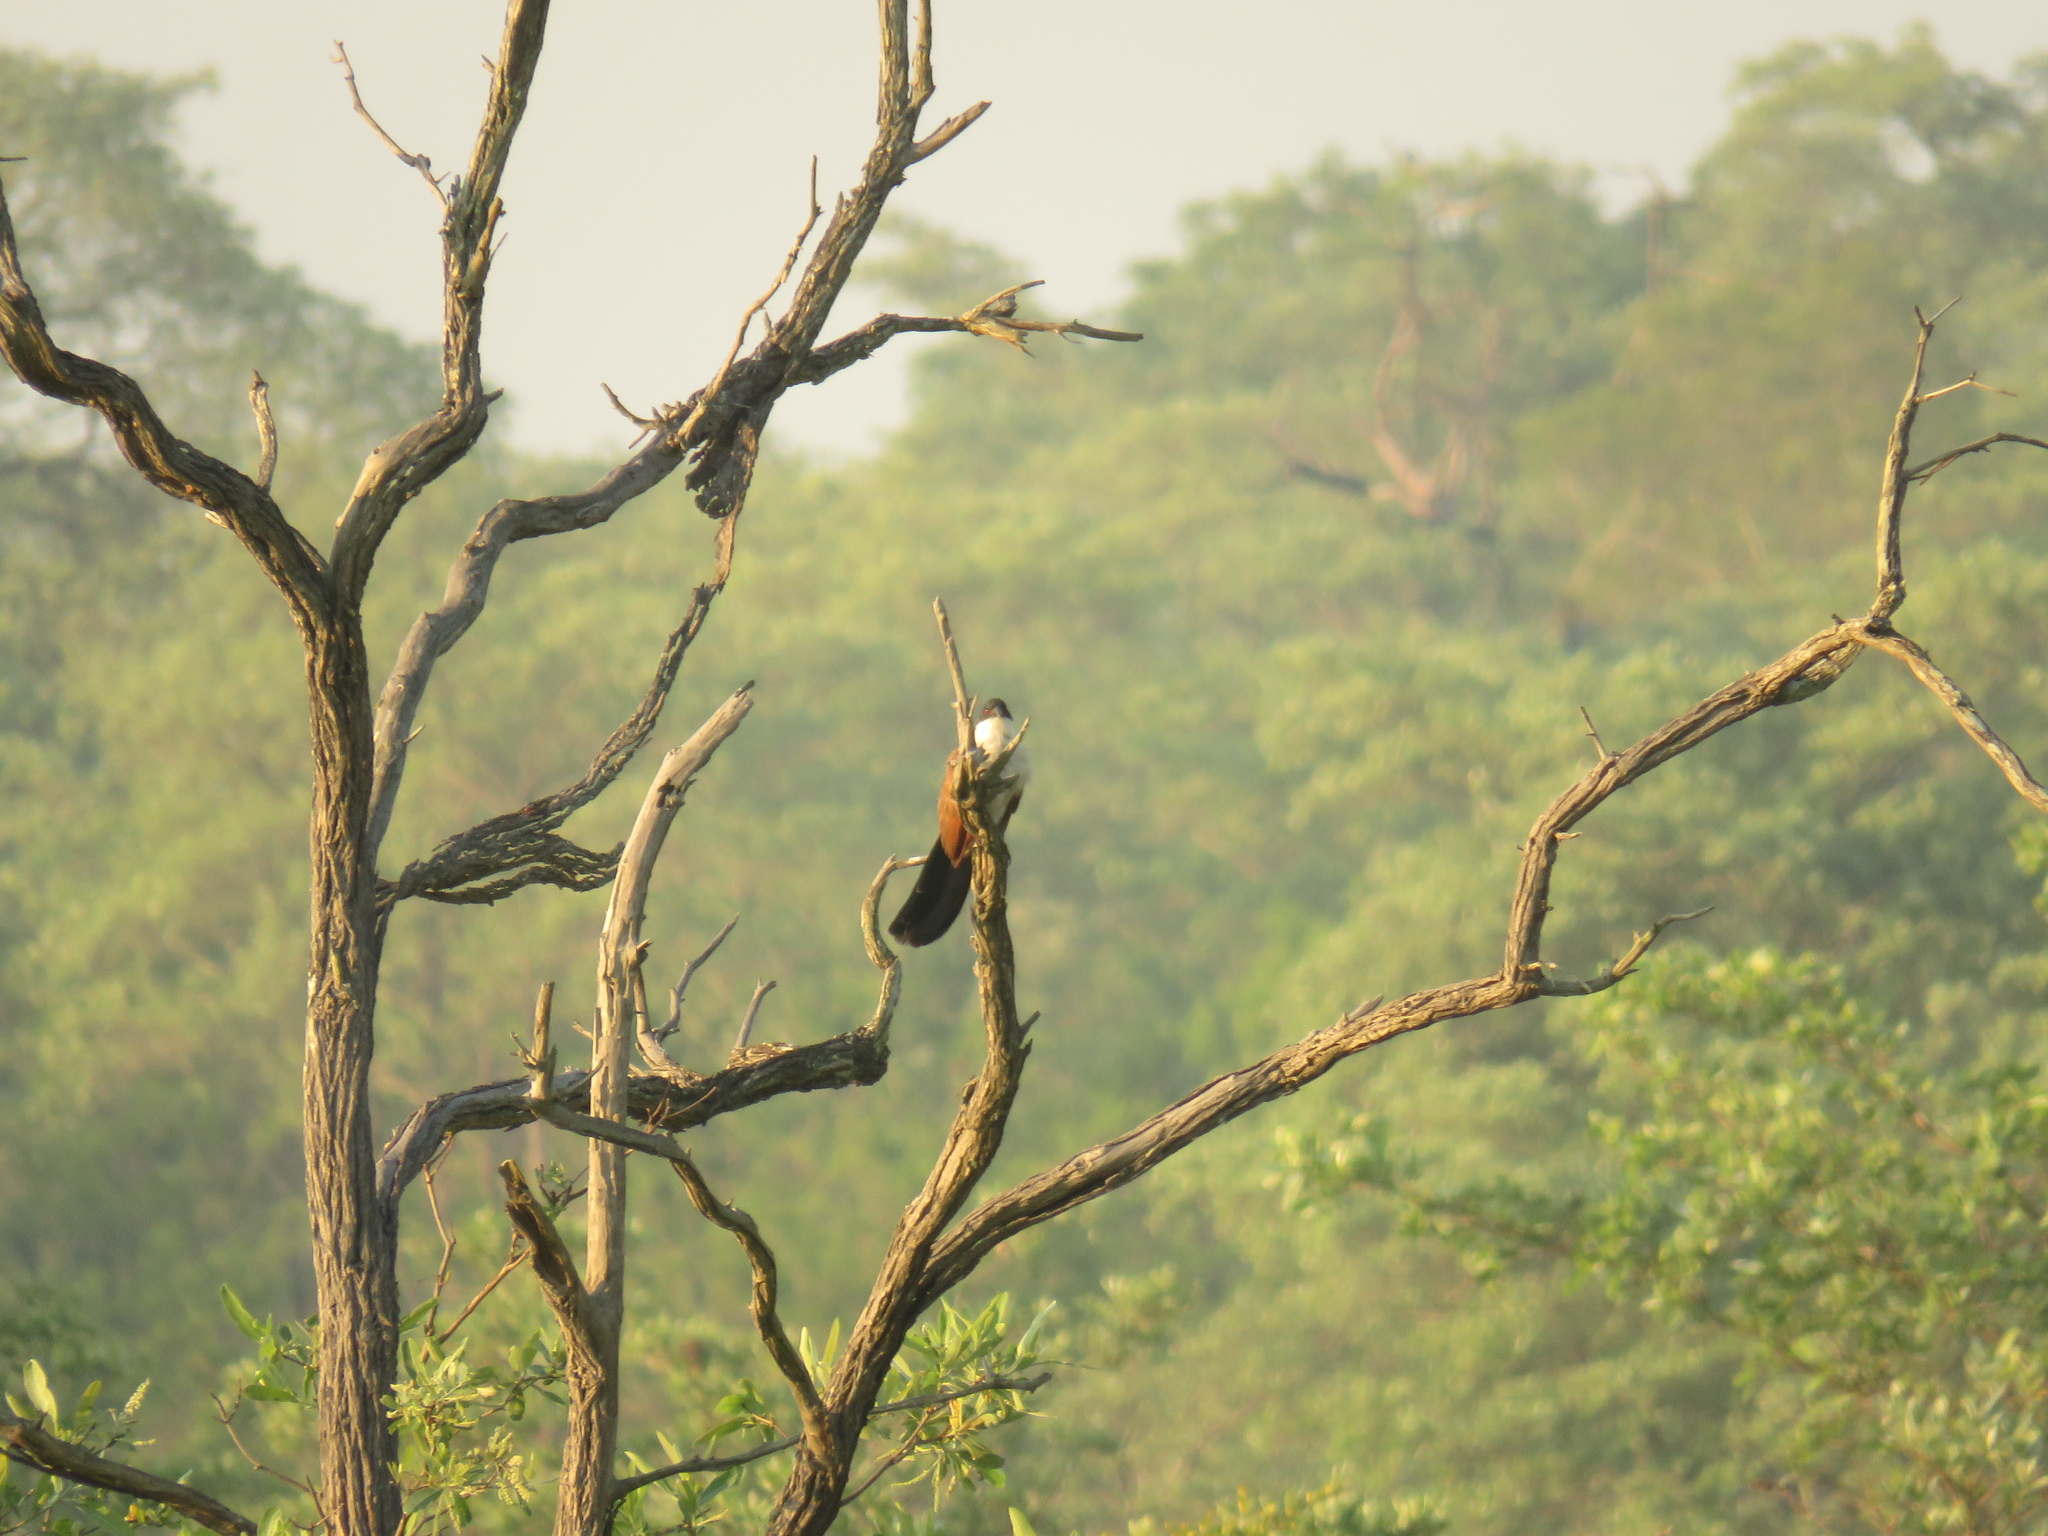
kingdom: Animalia
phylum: Chordata
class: Aves
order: Cuculiformes
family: Cuculidae
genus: Centropus
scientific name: Centropus superciliosus
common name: White-browed coucal
